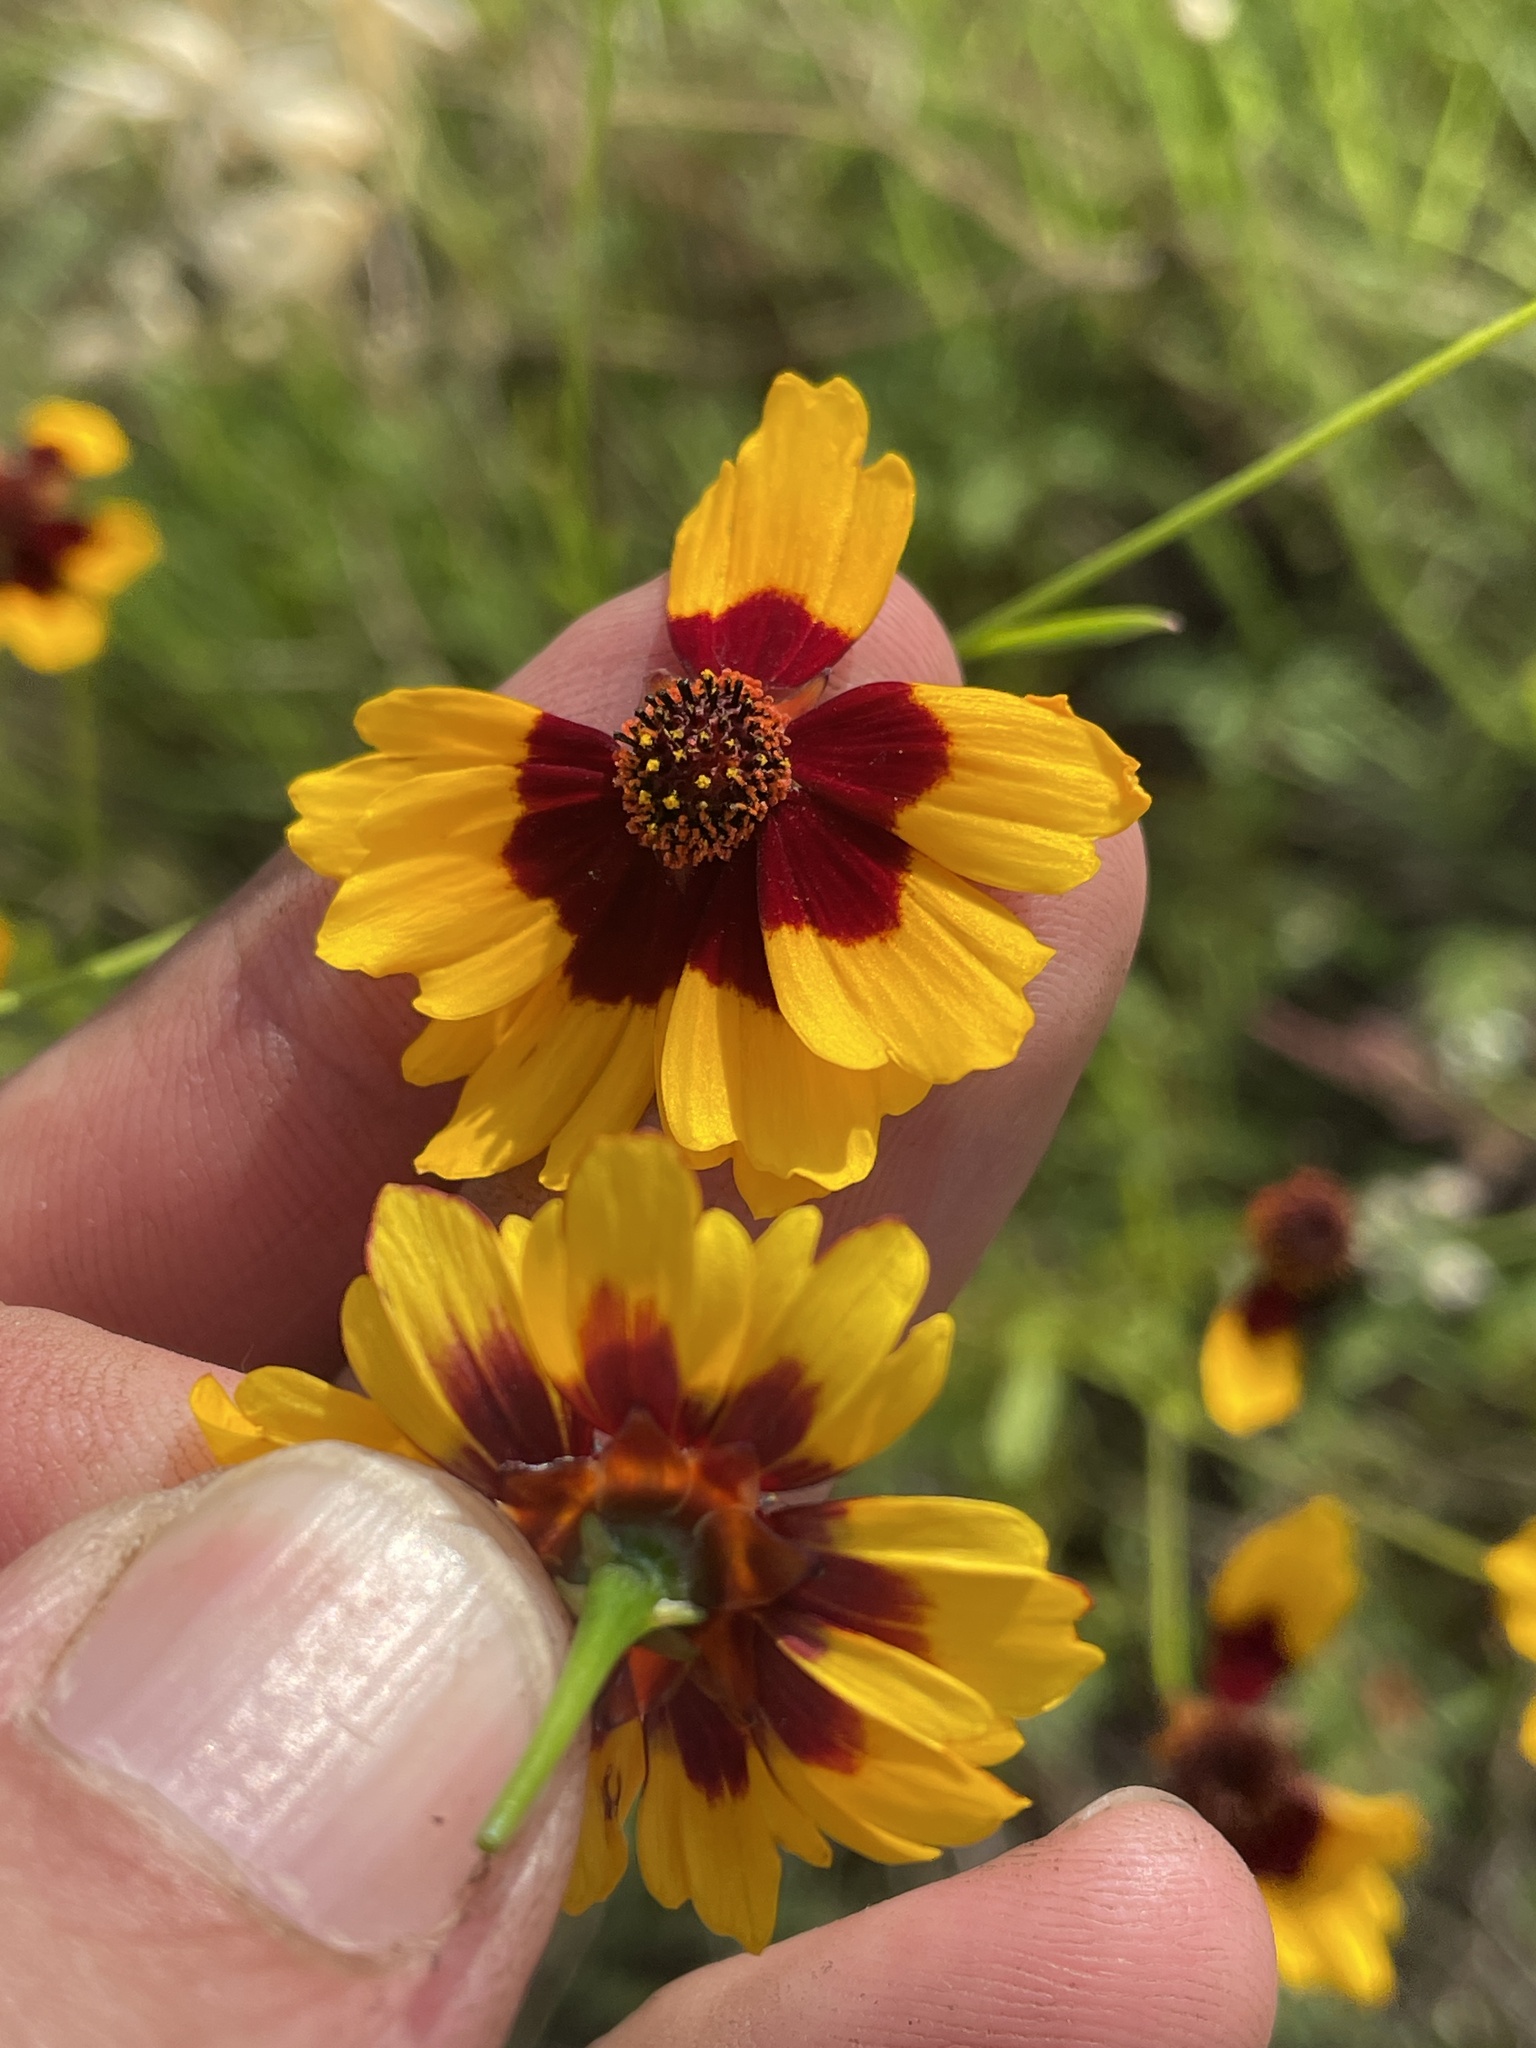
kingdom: Plantae
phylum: Tracheophyta
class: Magnoliopsida
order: Asterales
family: Asteraceae
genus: Coreopsis
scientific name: Coreopsis tinctoria
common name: Garden tickseed
